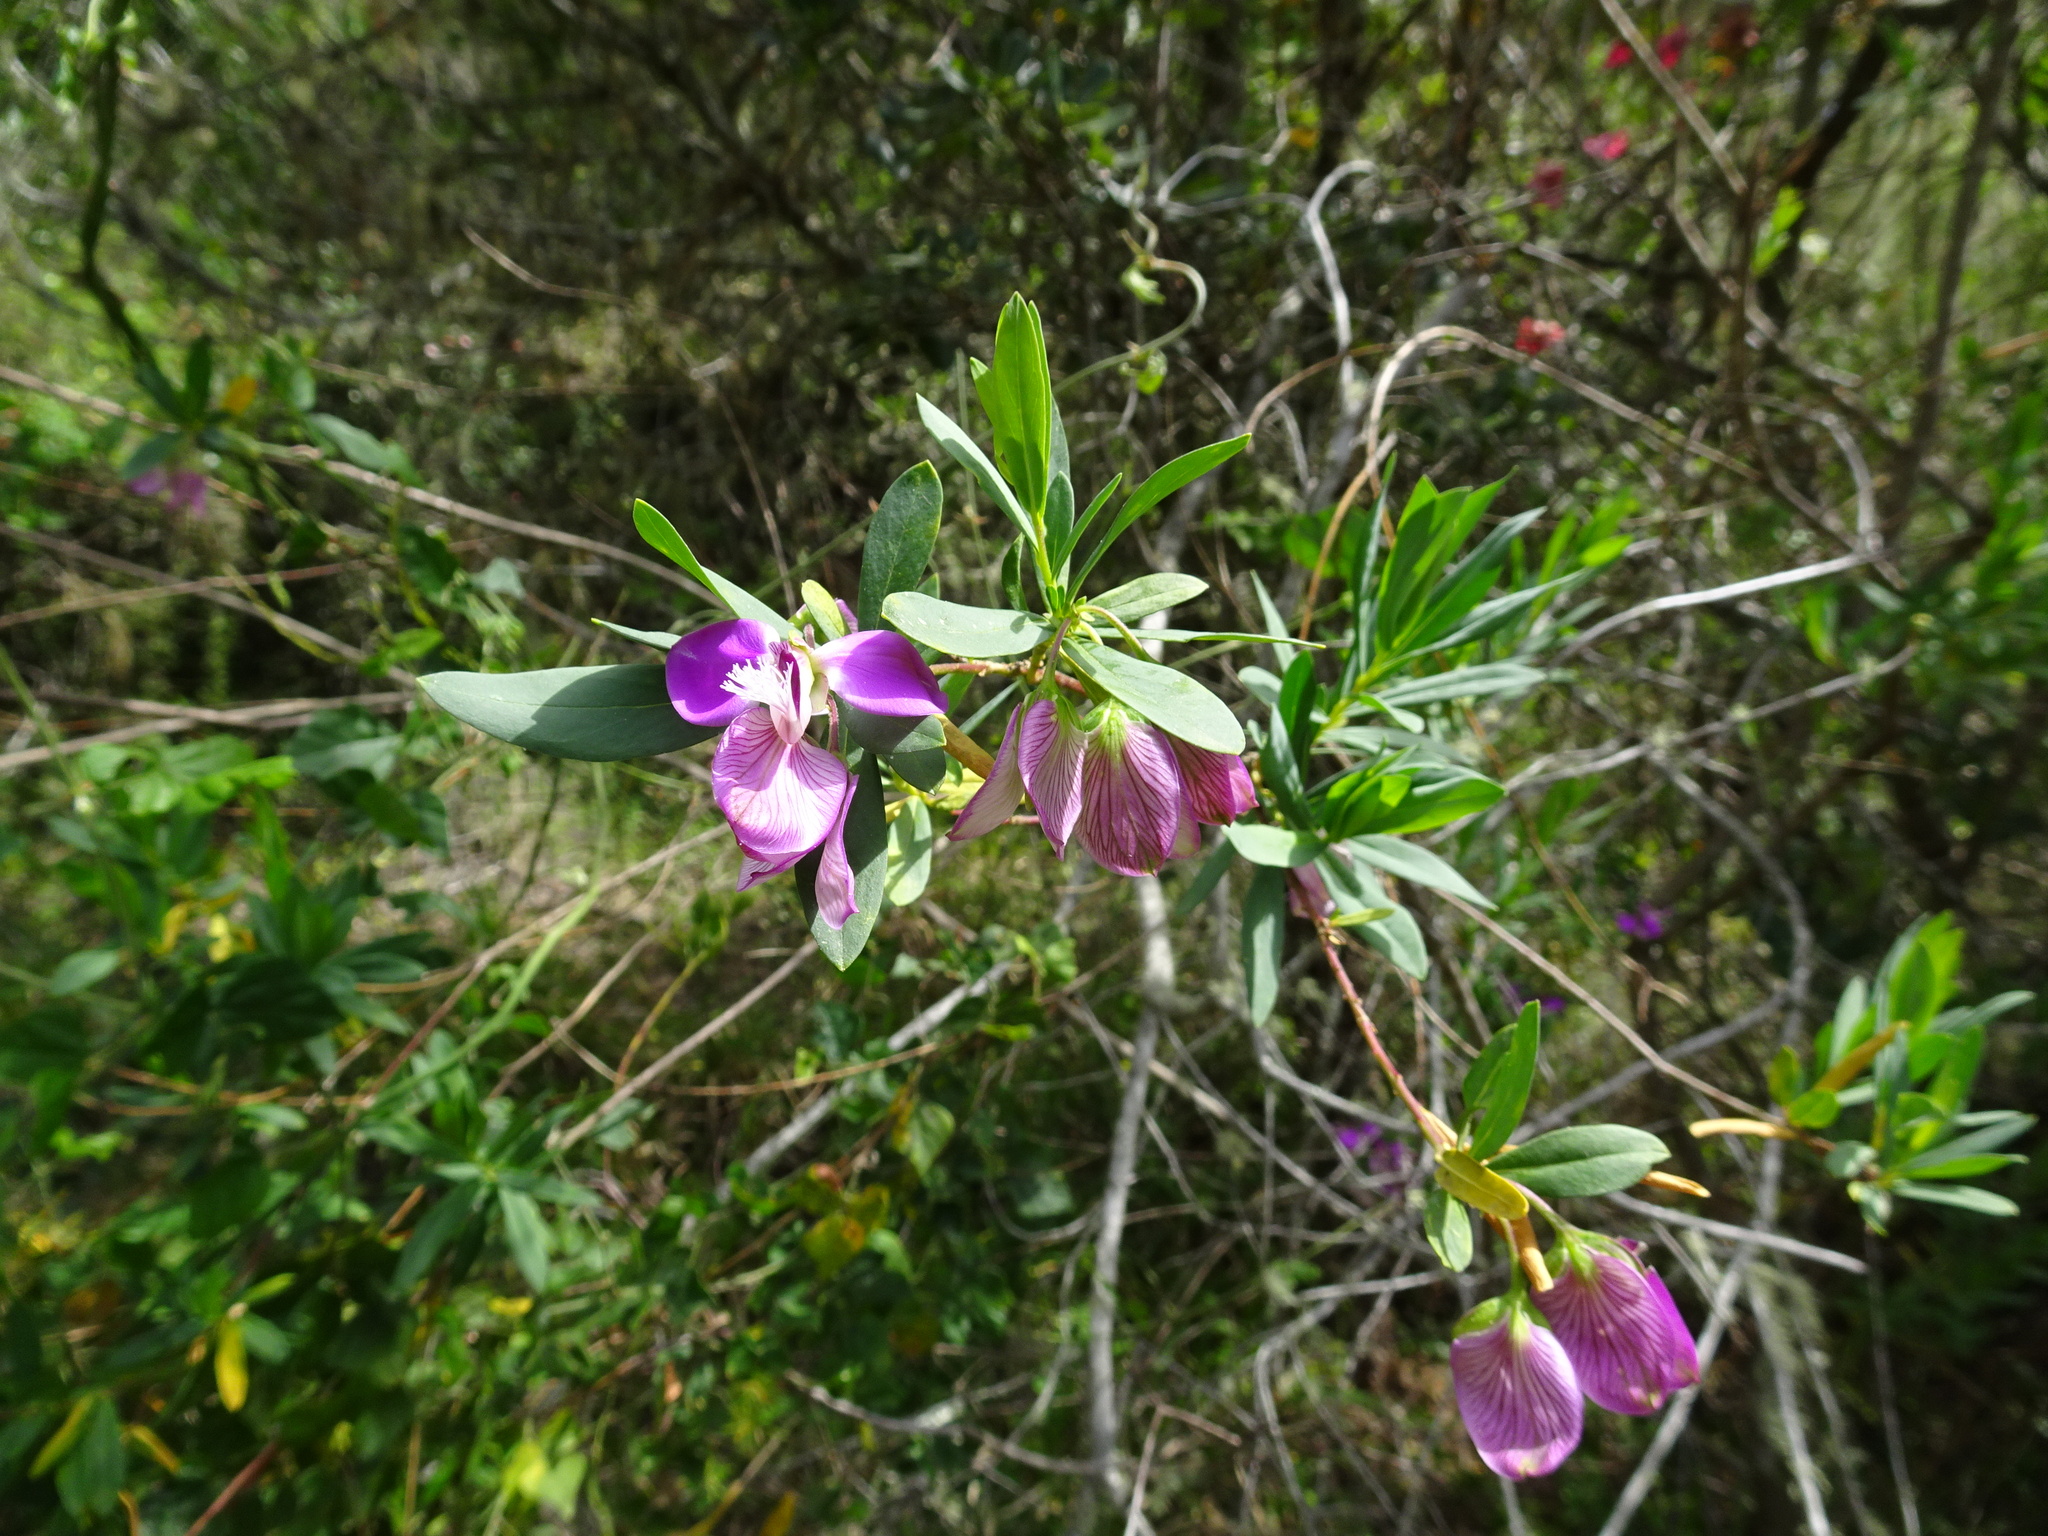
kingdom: Plantae
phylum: Tracheophyta
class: Magnoliopsida
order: Fabales
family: Polygalaceae
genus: Polygala
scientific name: Polygala myrtifolia
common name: Myrtle-leaf milkwort
